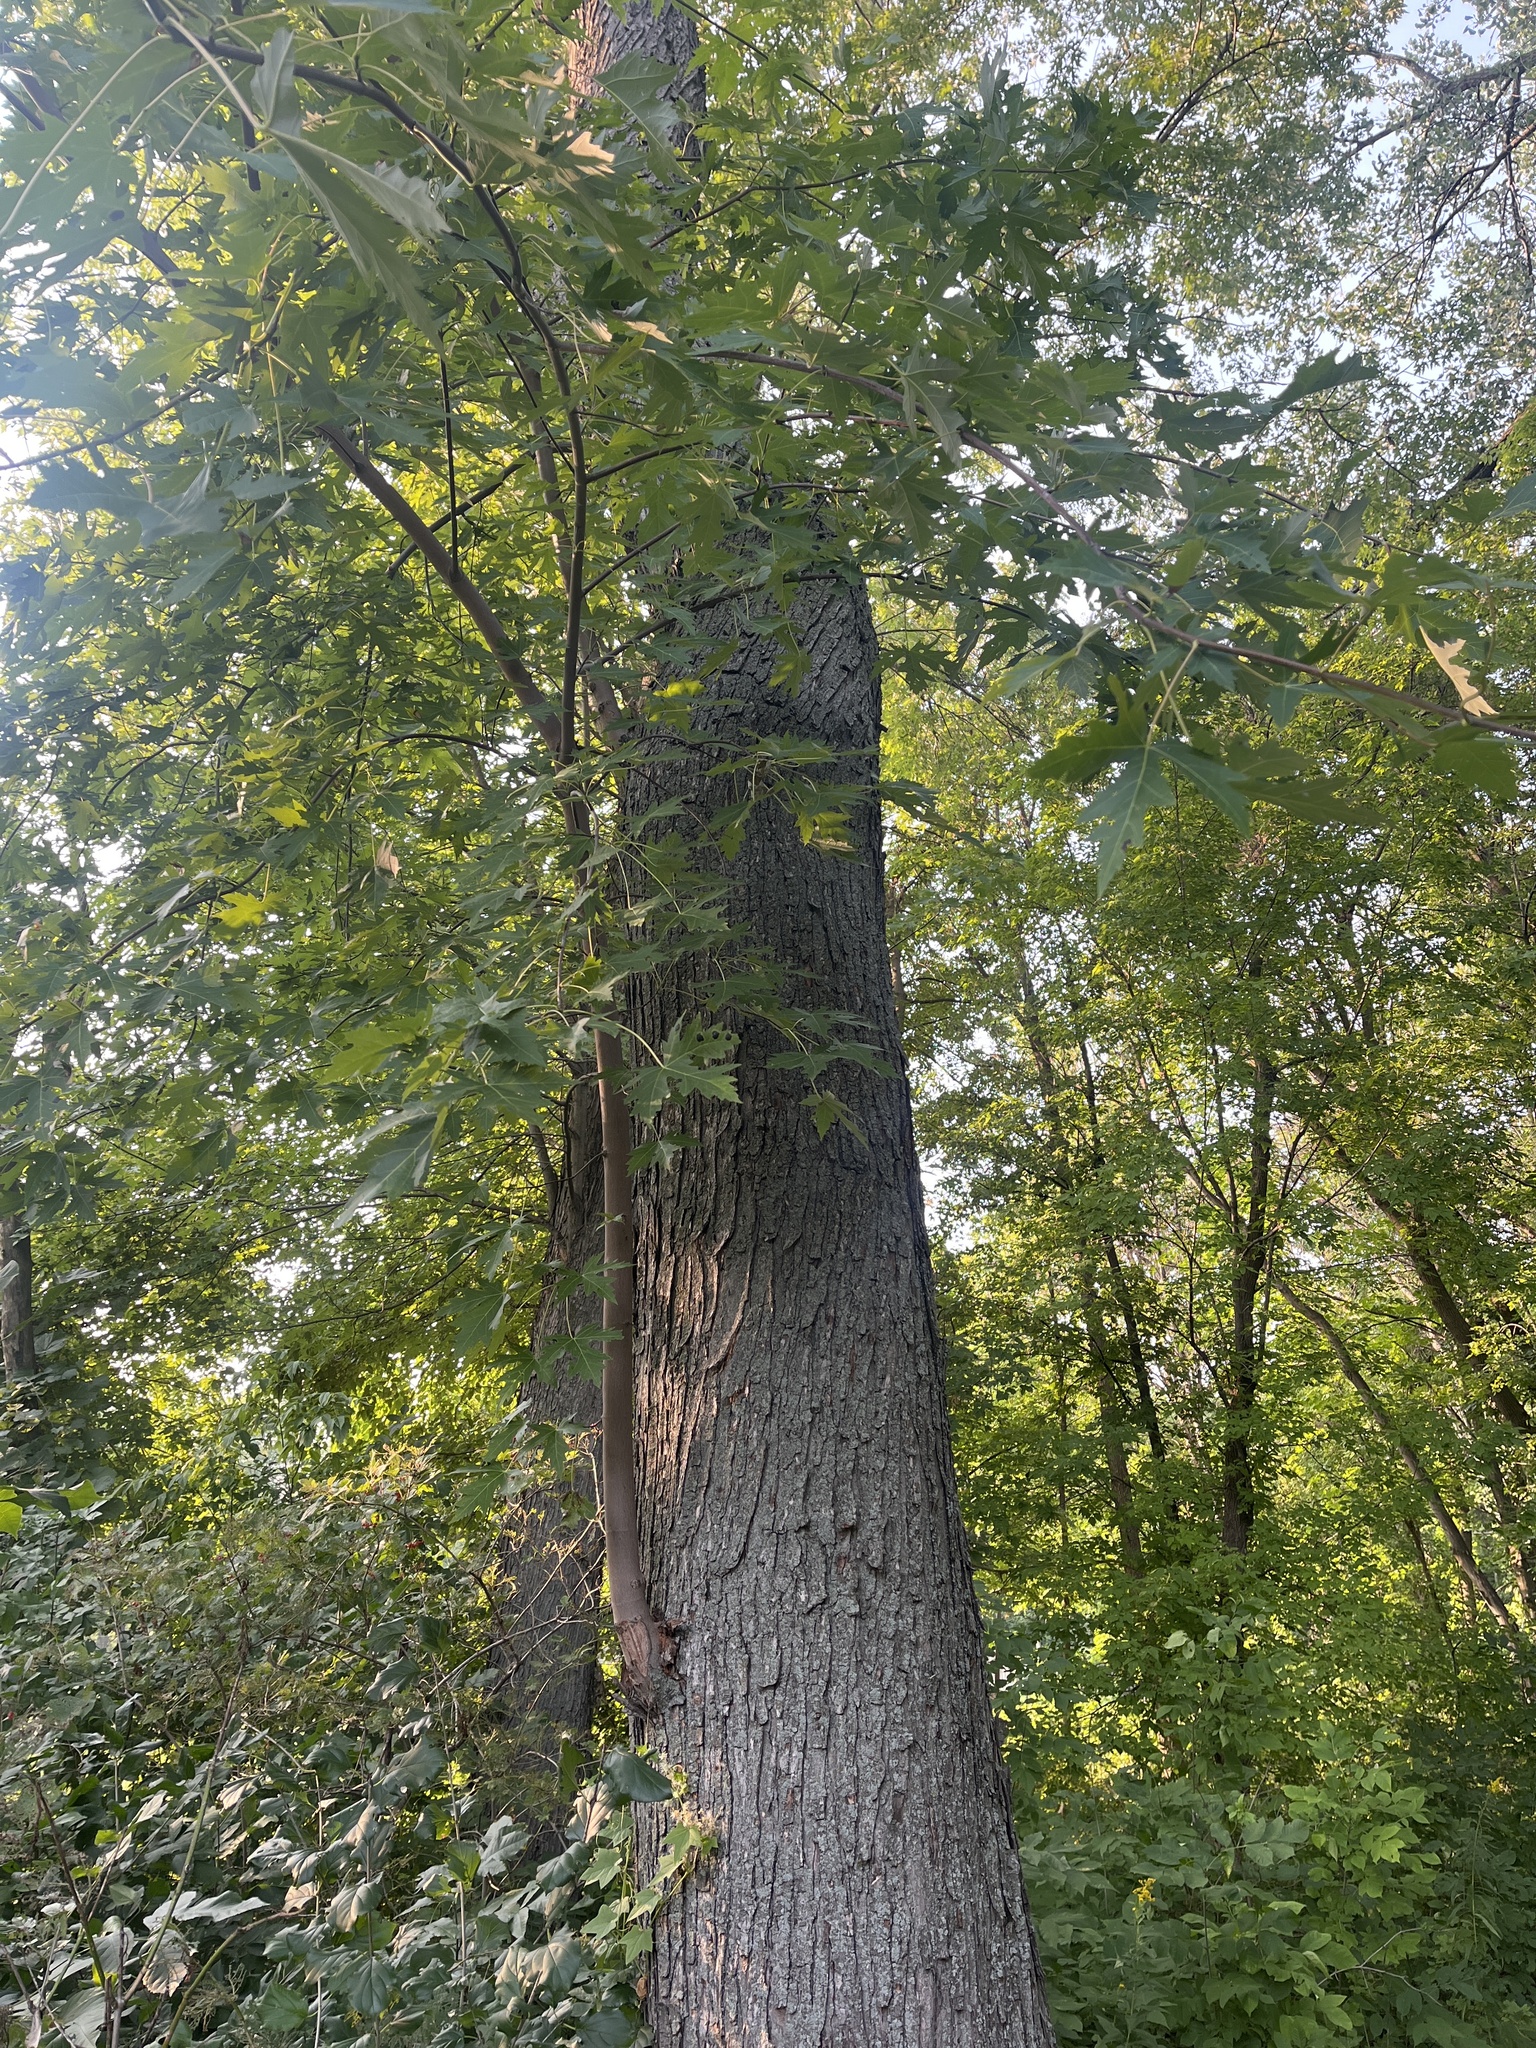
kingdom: Plantae
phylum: Tracheophyta
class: Magnoliopsida
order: Sapindales
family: Sapindaceae
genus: Acer
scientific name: Acer saccharinum
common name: Silver maple
